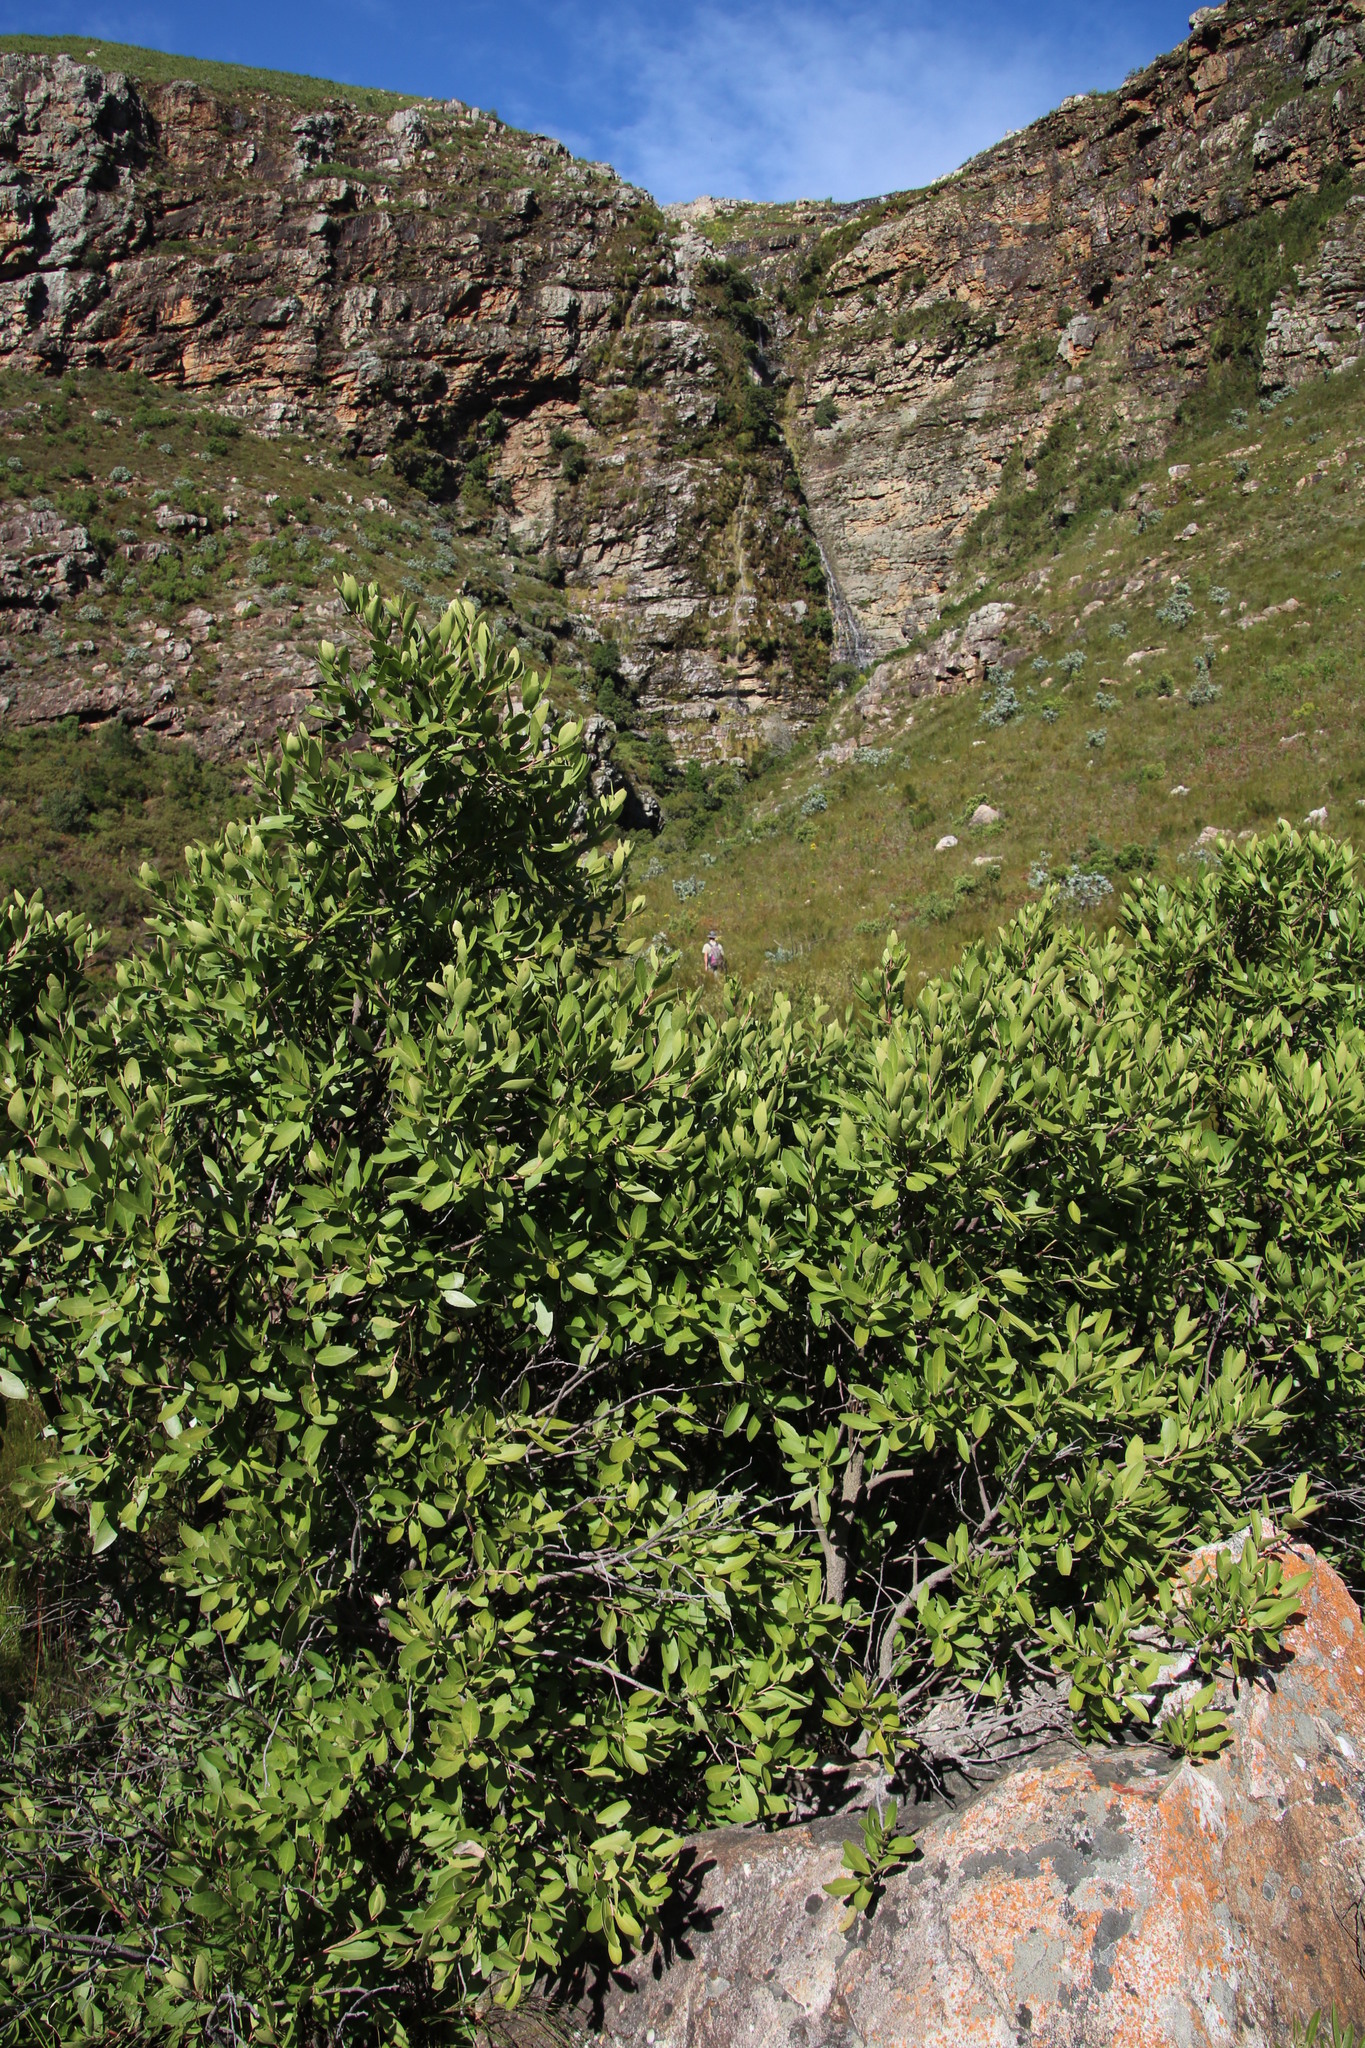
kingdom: Plantae
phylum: Tracheophyta
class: Magnoliopsida
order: Celastrales
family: Celastraceae
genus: Gymnosporia
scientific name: Gymnosporia laurina
